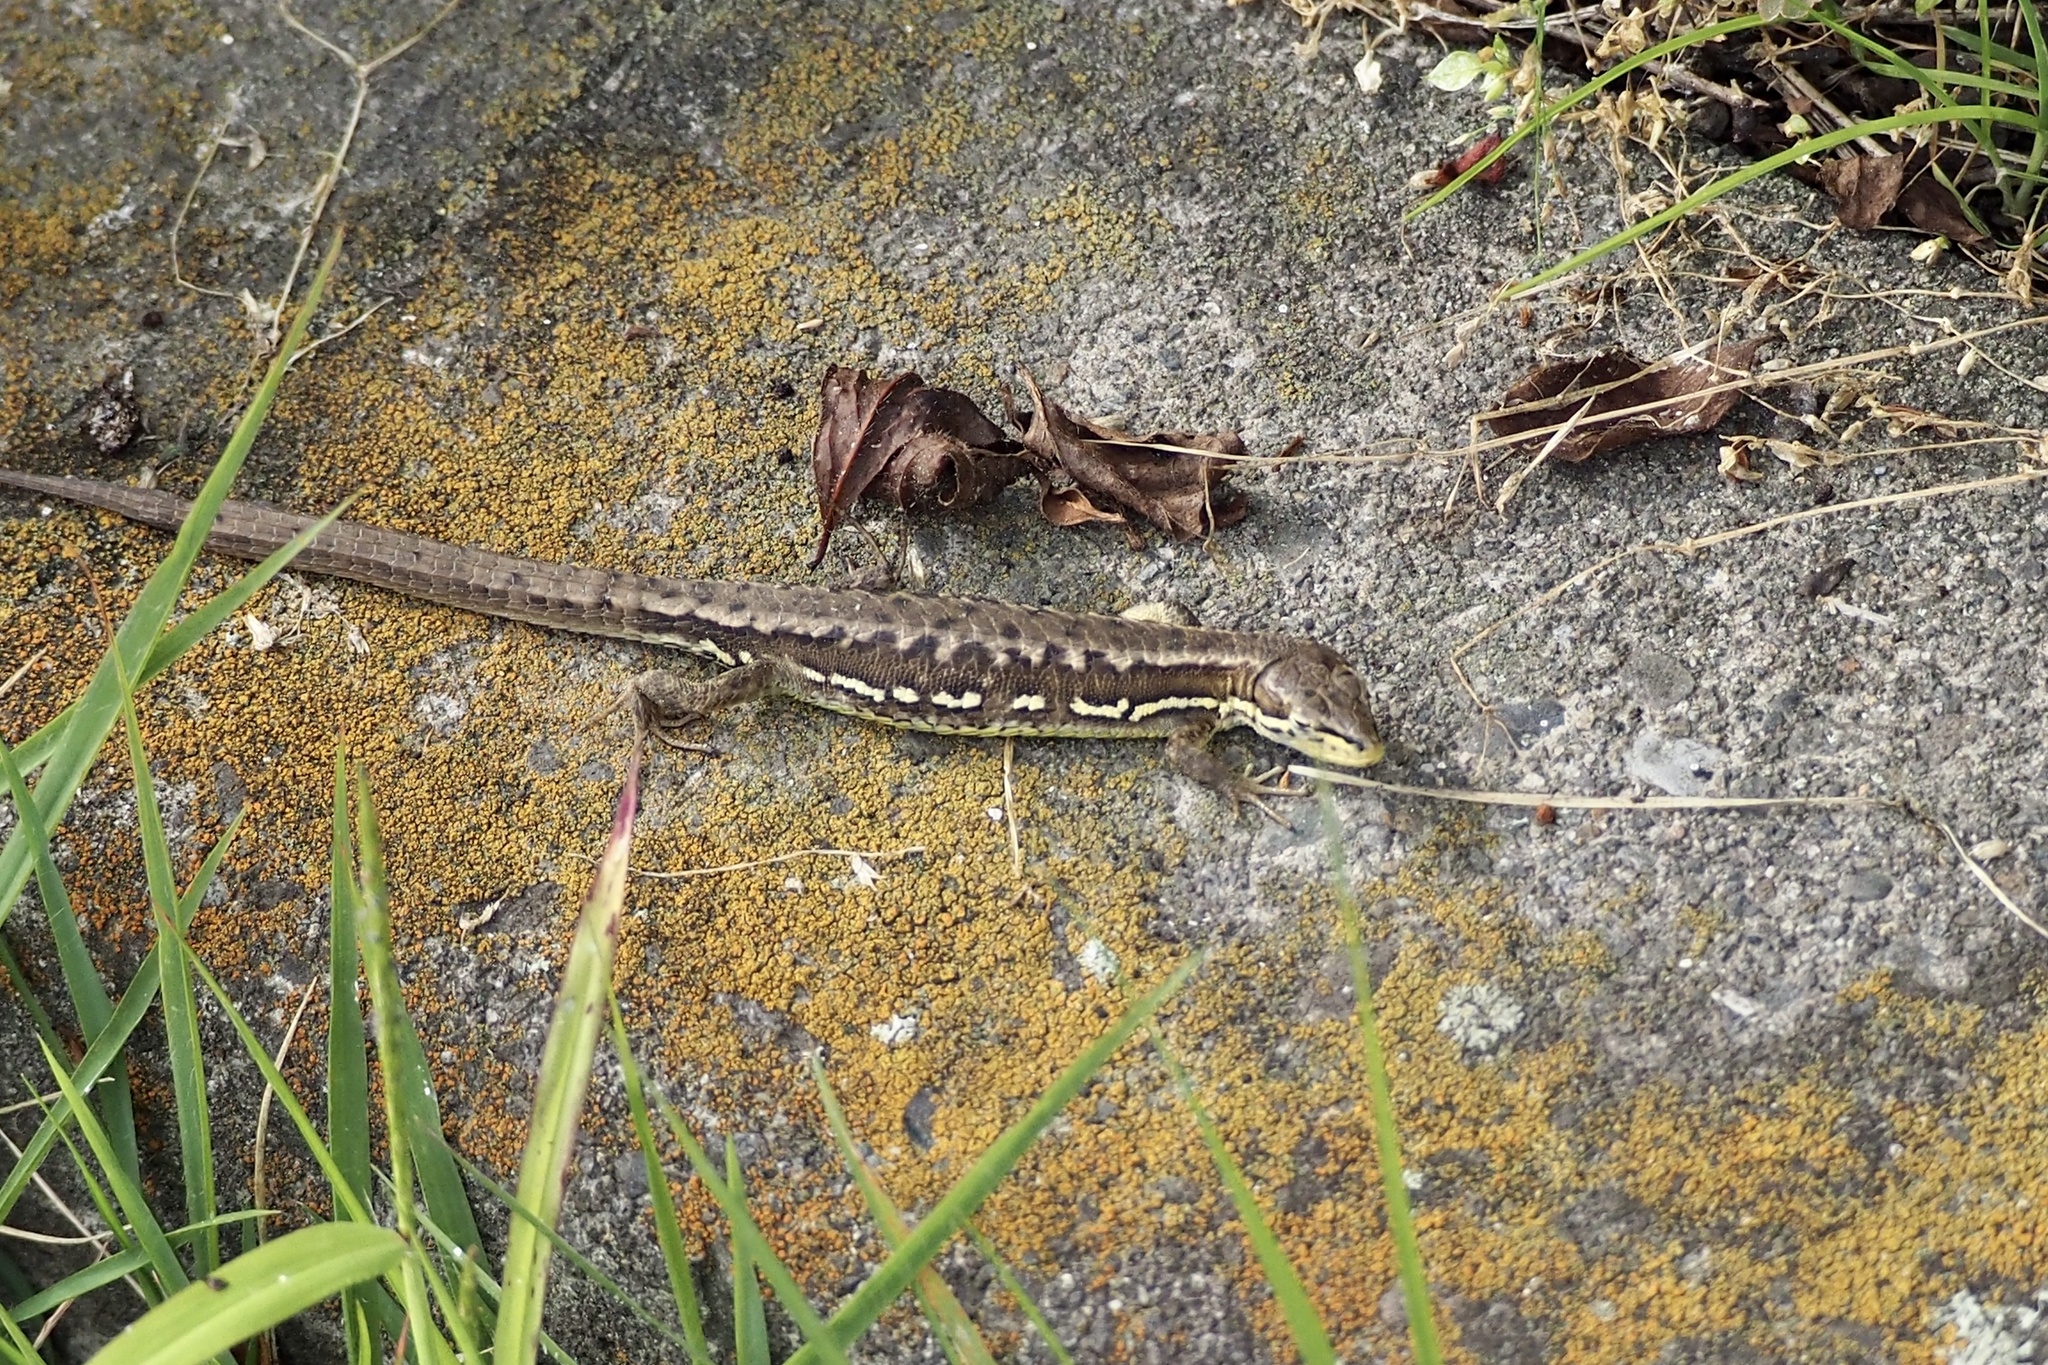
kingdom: Animalia
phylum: Chordata
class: Squamata
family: Lacertidae
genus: Takydromus
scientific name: Takydromus tachydromoides
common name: Japanese grass lizard
